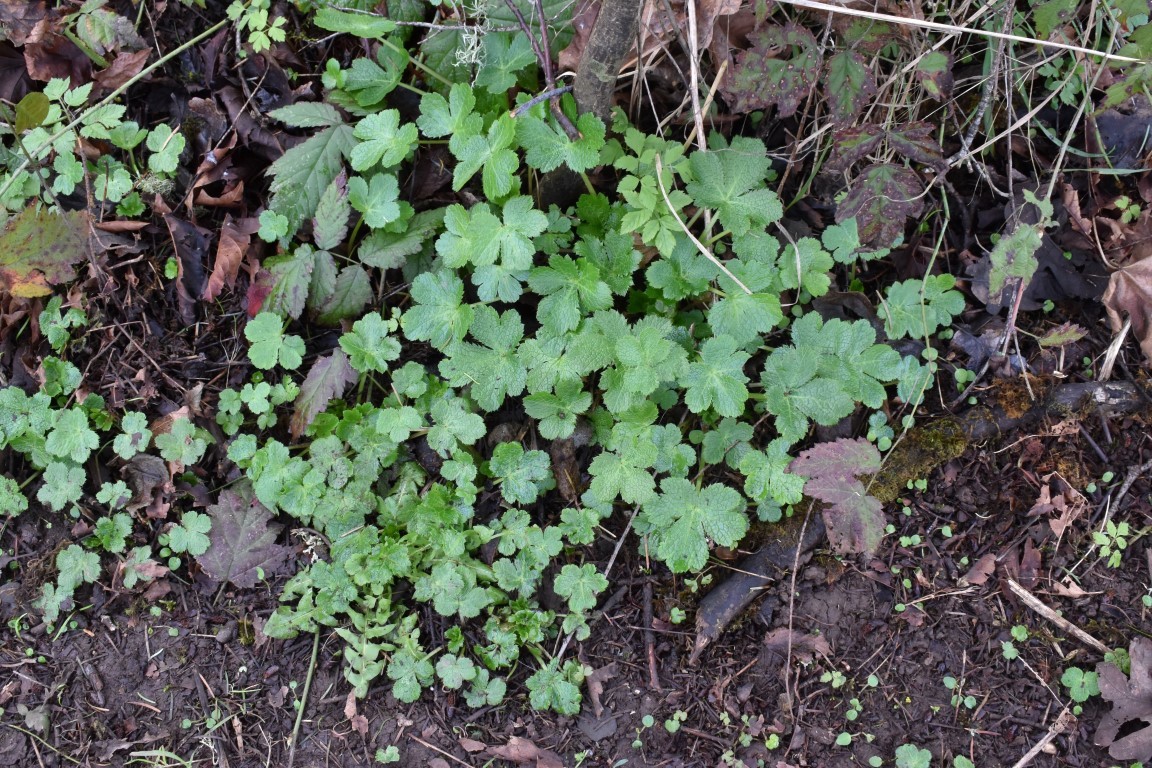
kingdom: Plantae
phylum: Tracheophyta
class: Magnoliopsida
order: Apiales
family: Apiaceae
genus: Sanicula
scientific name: Sanicula crassicaulis
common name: Western snakeroot
